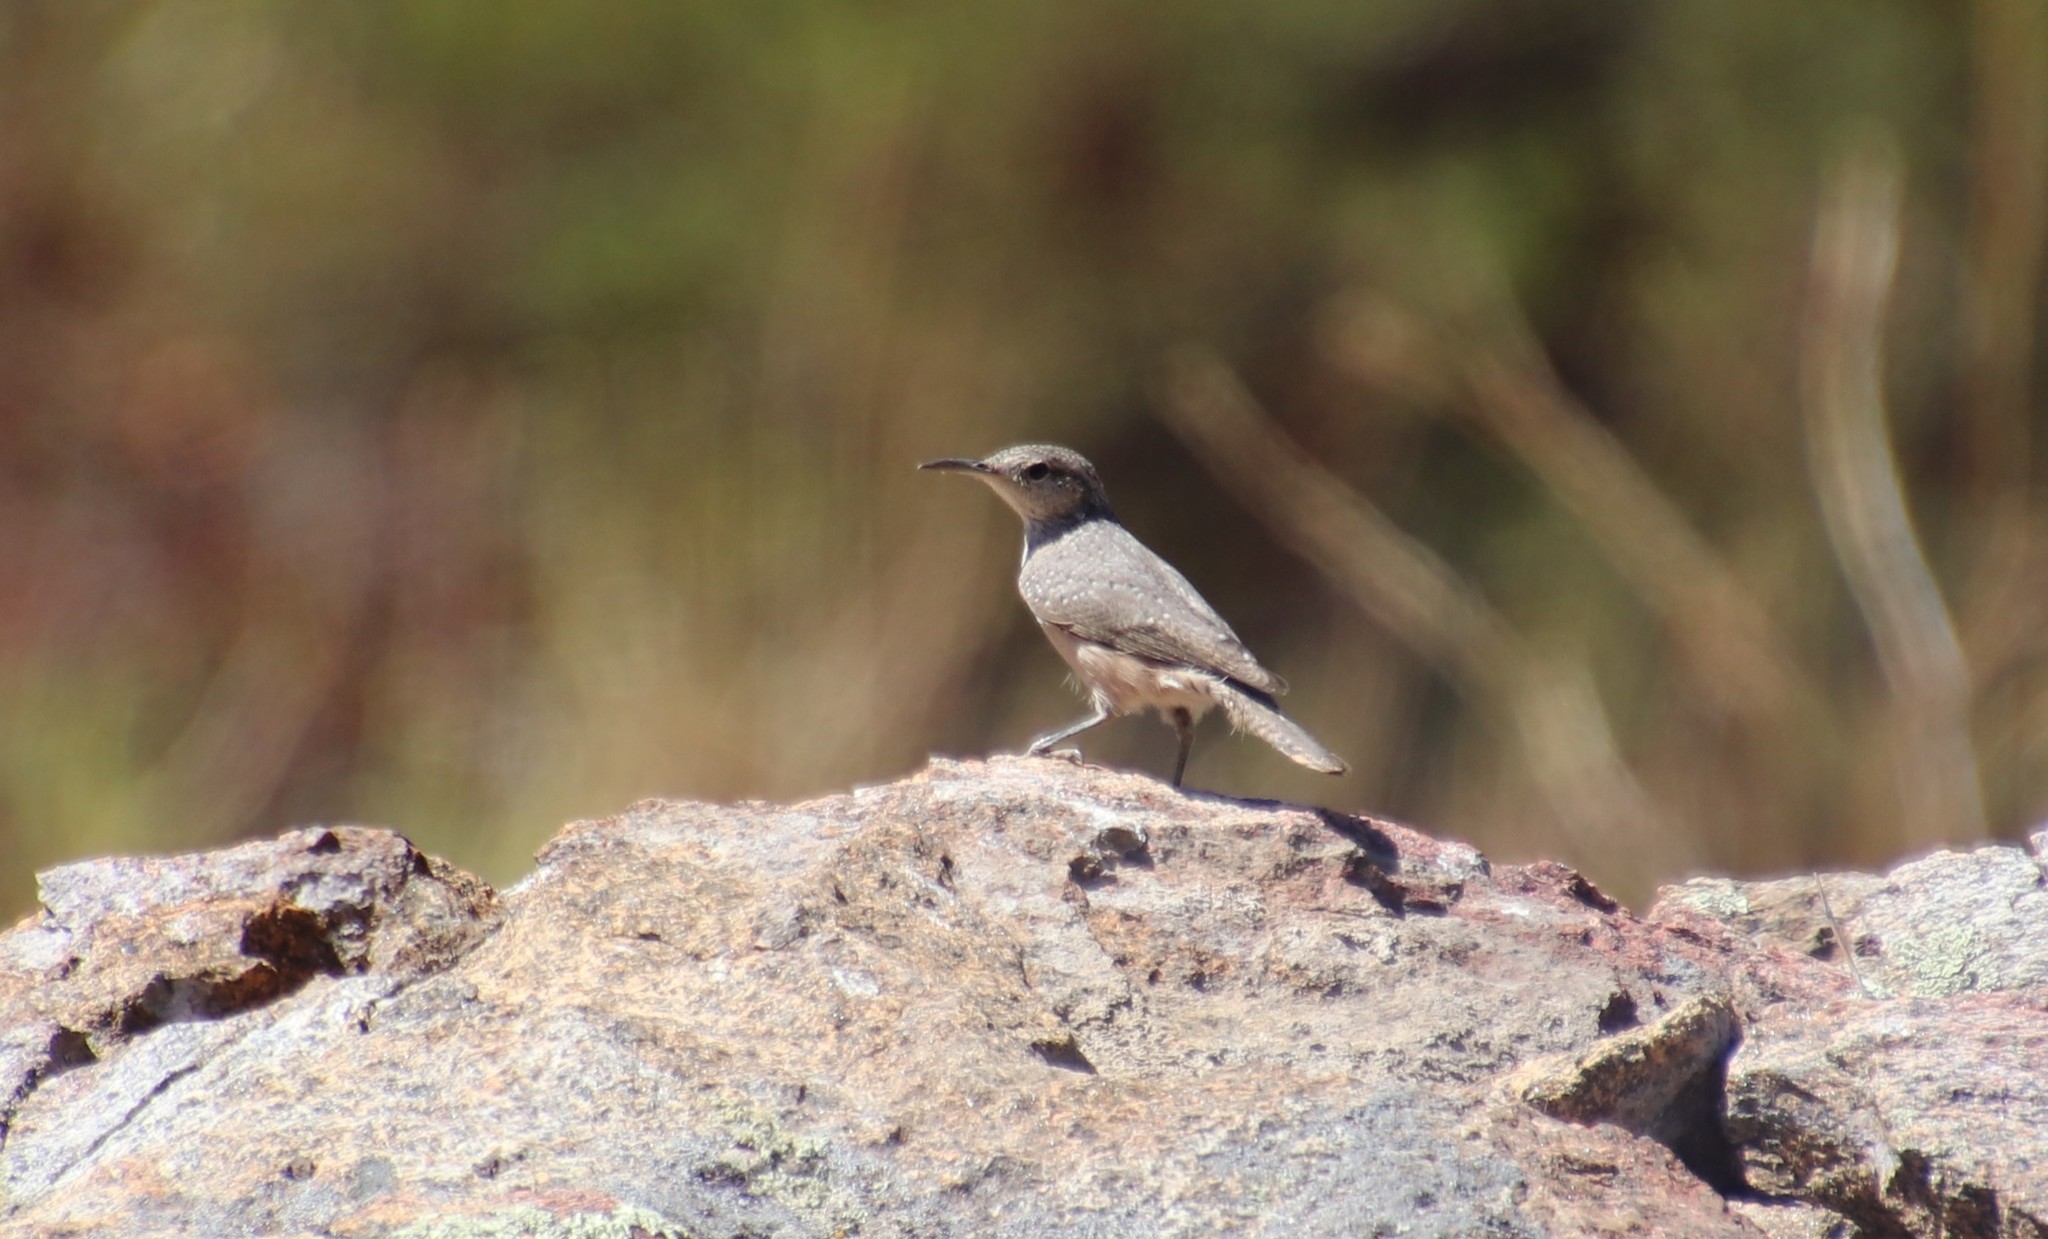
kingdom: Animalia
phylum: Chordata
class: Aves
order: Passeriformes
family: Troglodytidae
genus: Salpinctes
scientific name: Salpinctes obsoletus
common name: Rock wren
